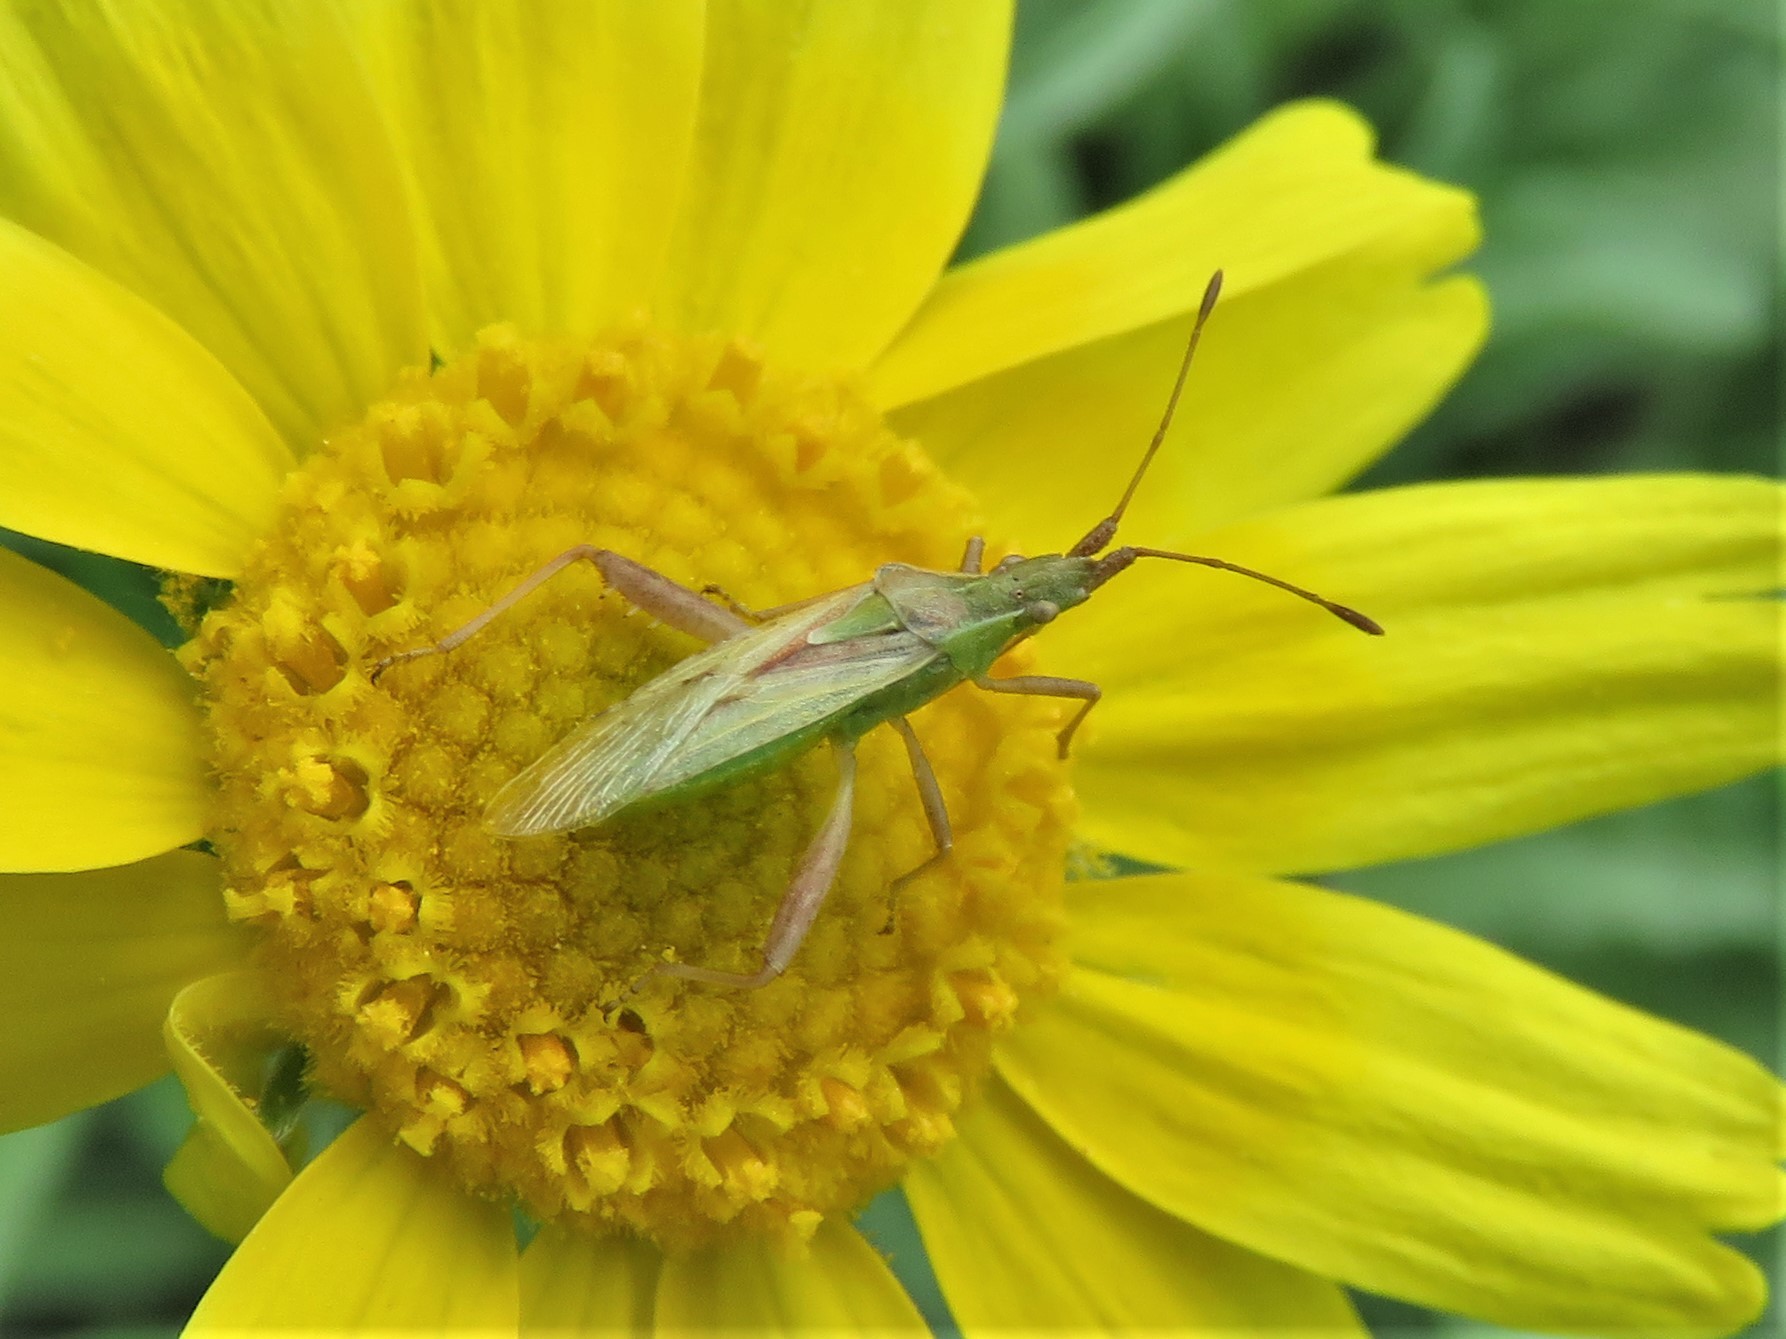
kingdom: Animalia
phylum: Arthropoda
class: Insecta
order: Hemiptera
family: Rhopalidae
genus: Harmostes
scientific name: Harmostes reflexulus
